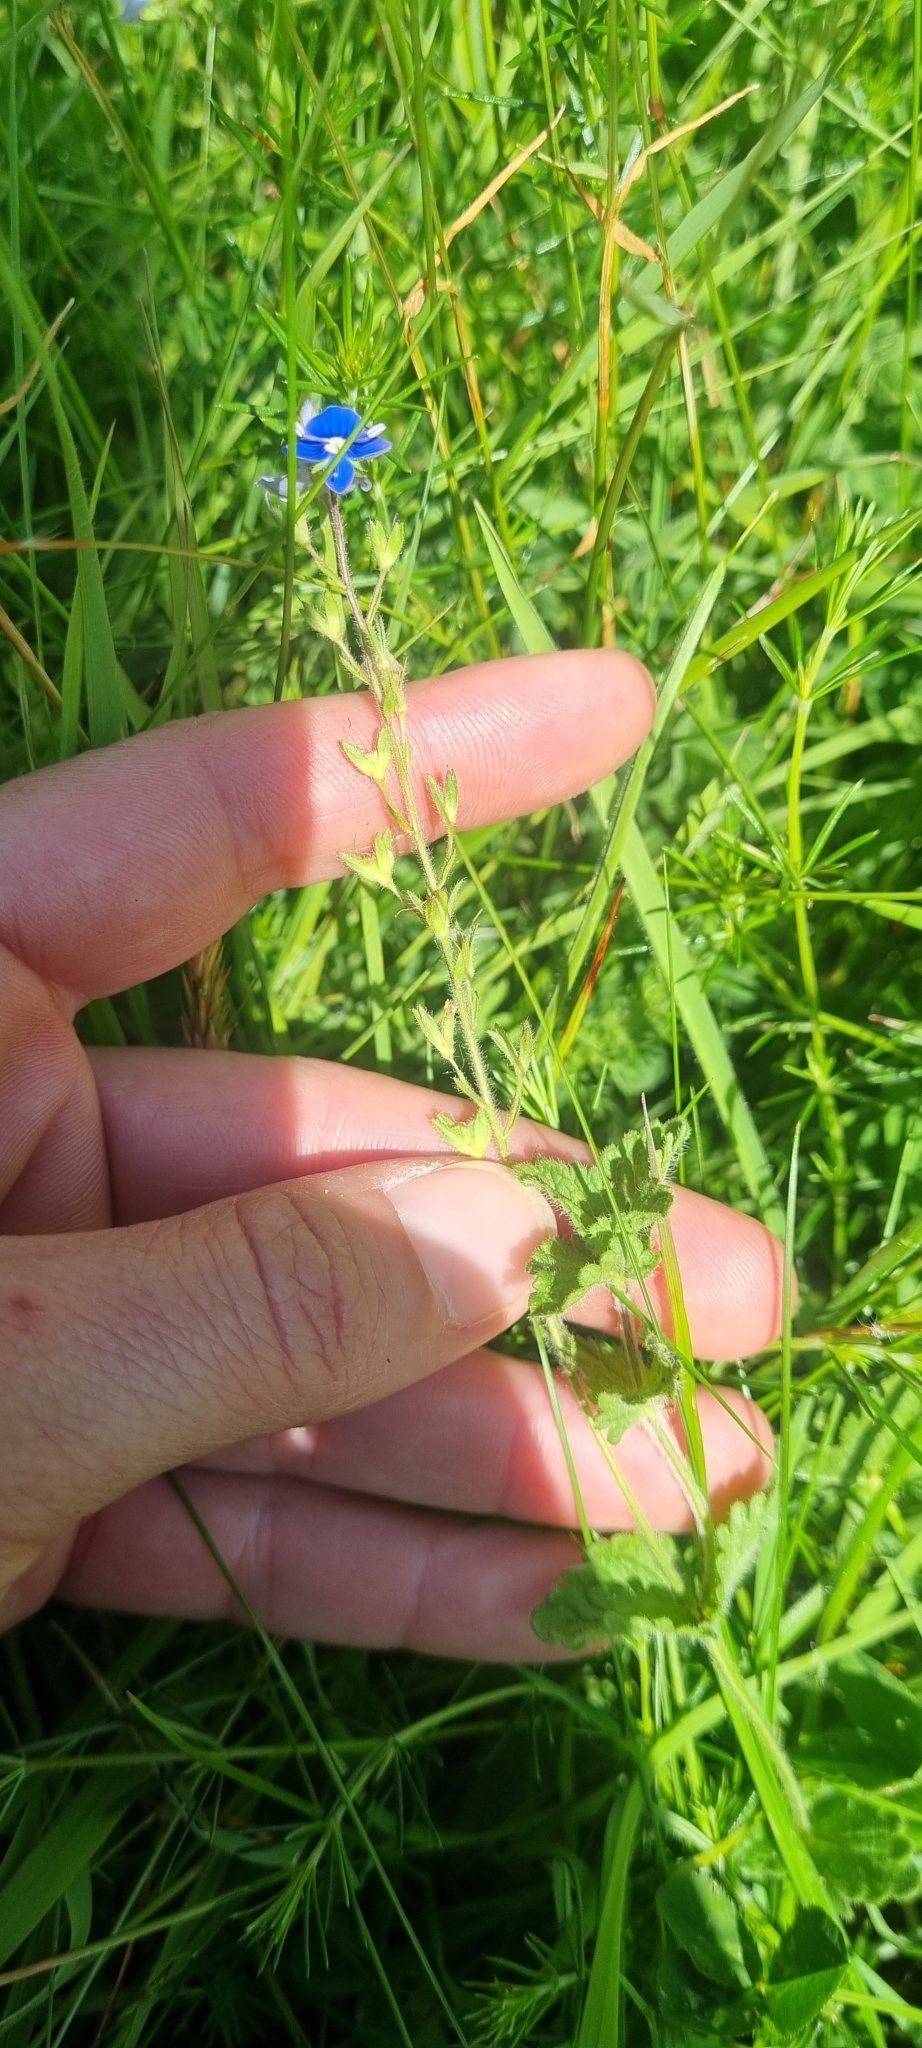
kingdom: Plantae
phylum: Tracheophyta
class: Magnoliopsida
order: Lamiales
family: Plantaginaceae
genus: Veronica
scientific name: Veronica chamaedrys
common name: Germander speedwell
